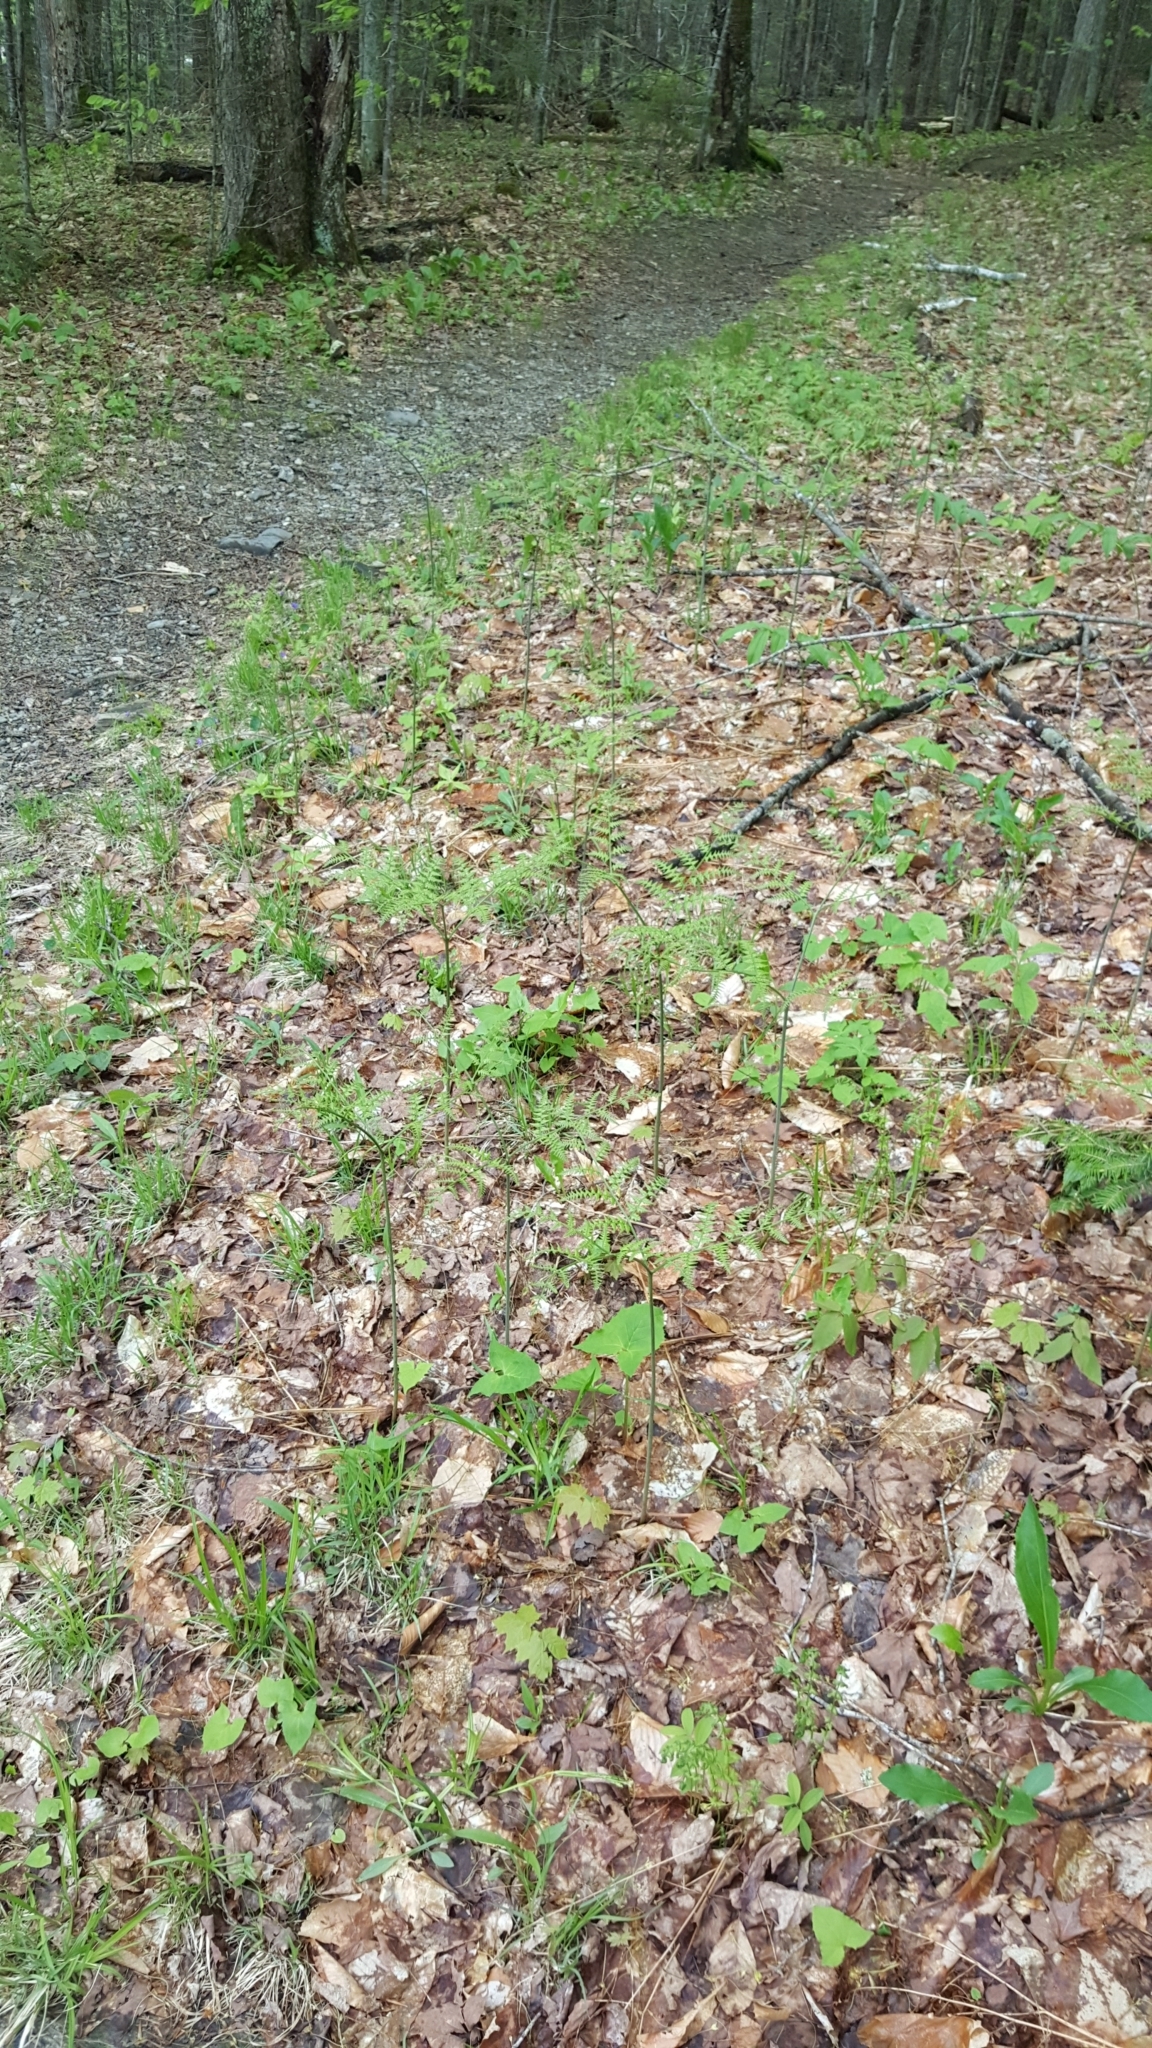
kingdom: Plantae
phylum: Tracheophyta
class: Polypodiopsida
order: Polypodiales
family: Dennstaedtiaceae
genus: Pteridium
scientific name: Pteridium aquilinum
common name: Bracken
